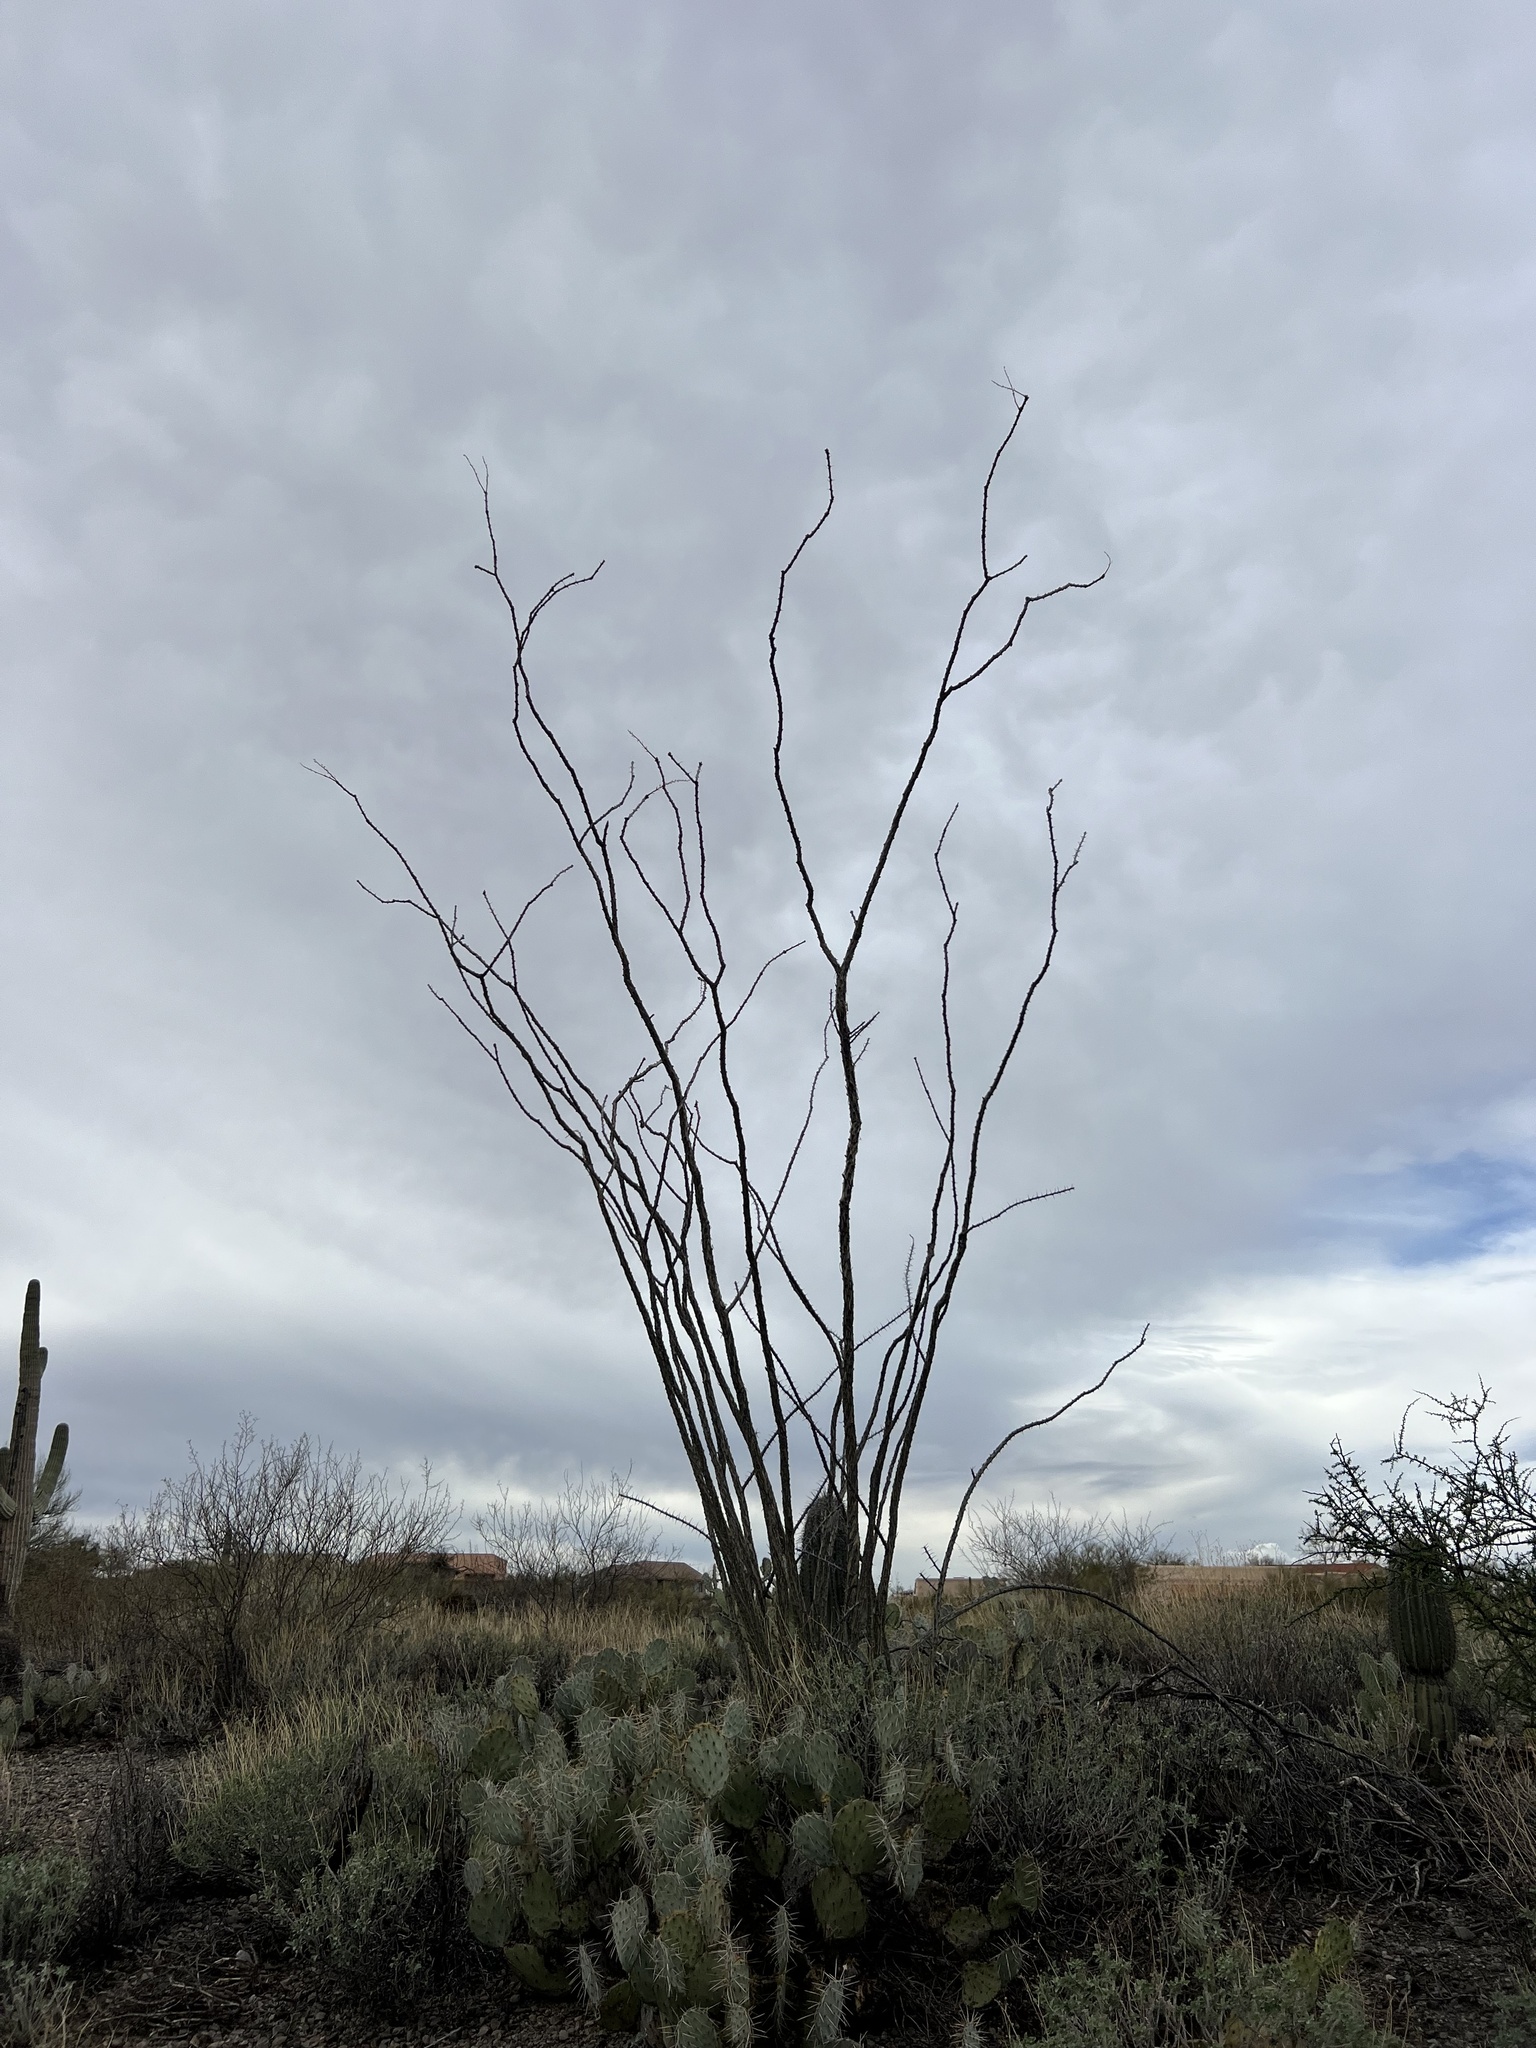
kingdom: Plantae
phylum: Tracheophyta
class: Magnoliopsida
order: Ericales
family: Fouquieriaceae
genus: Fouquieria
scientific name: Fouquieria splendens
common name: Vine-cactus
